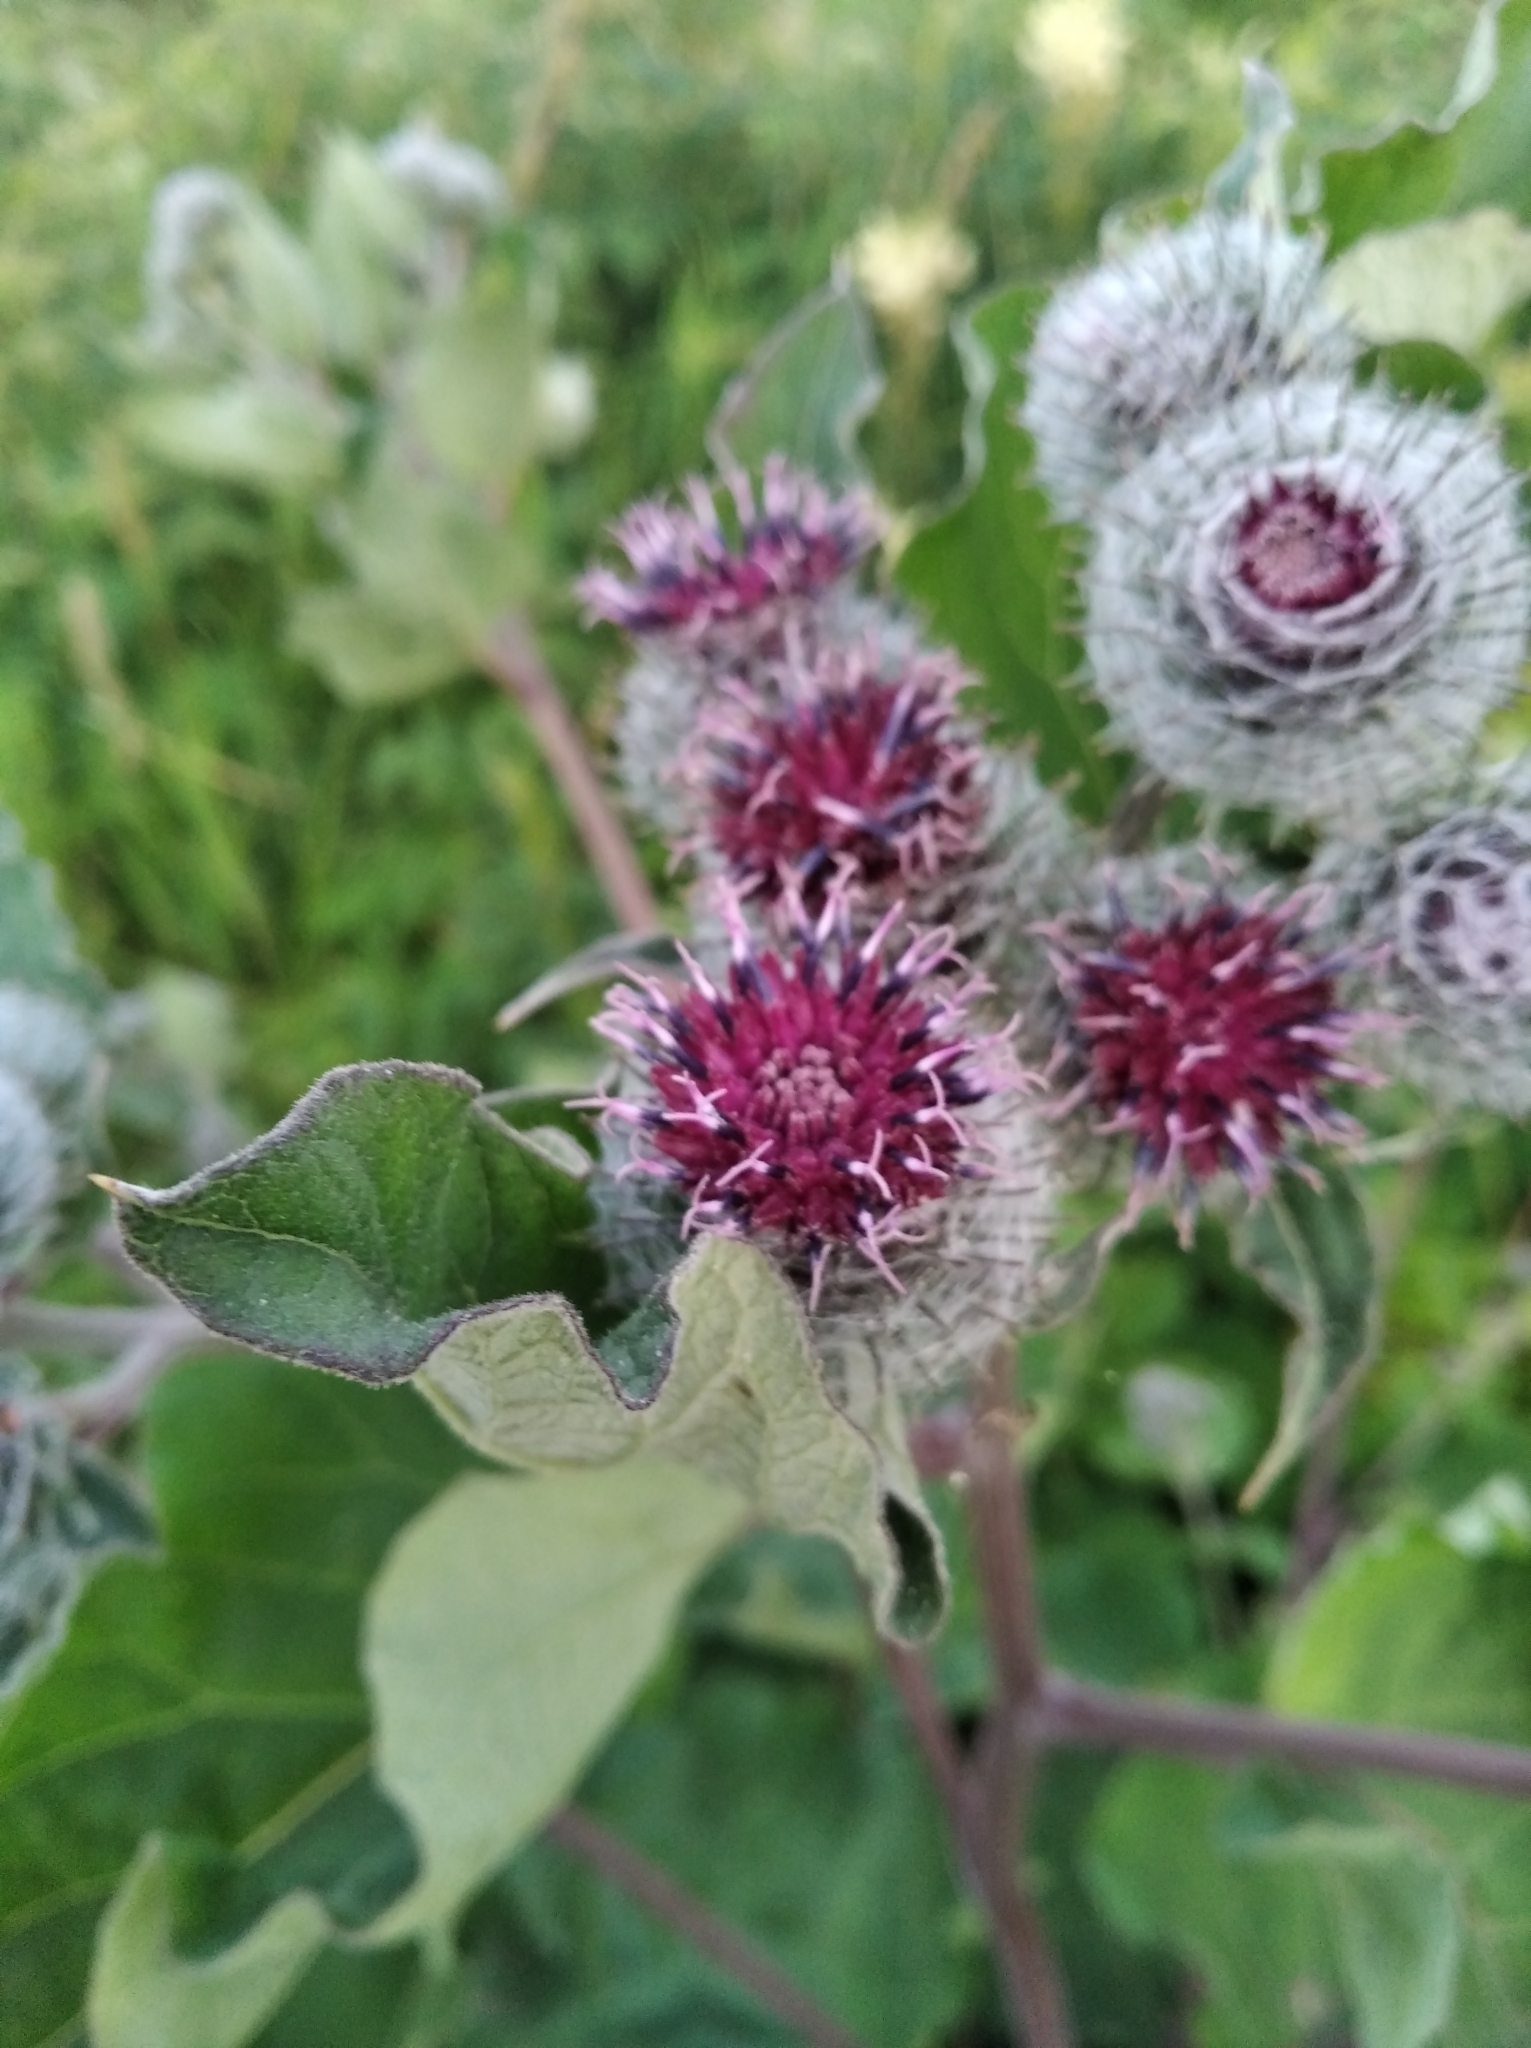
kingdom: Plantae
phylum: Tracheophyta
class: Magnoliopsida
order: Asterales
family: Asteraceae
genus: Arctium
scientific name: Arctium tomentosum
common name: Woolly burdock
